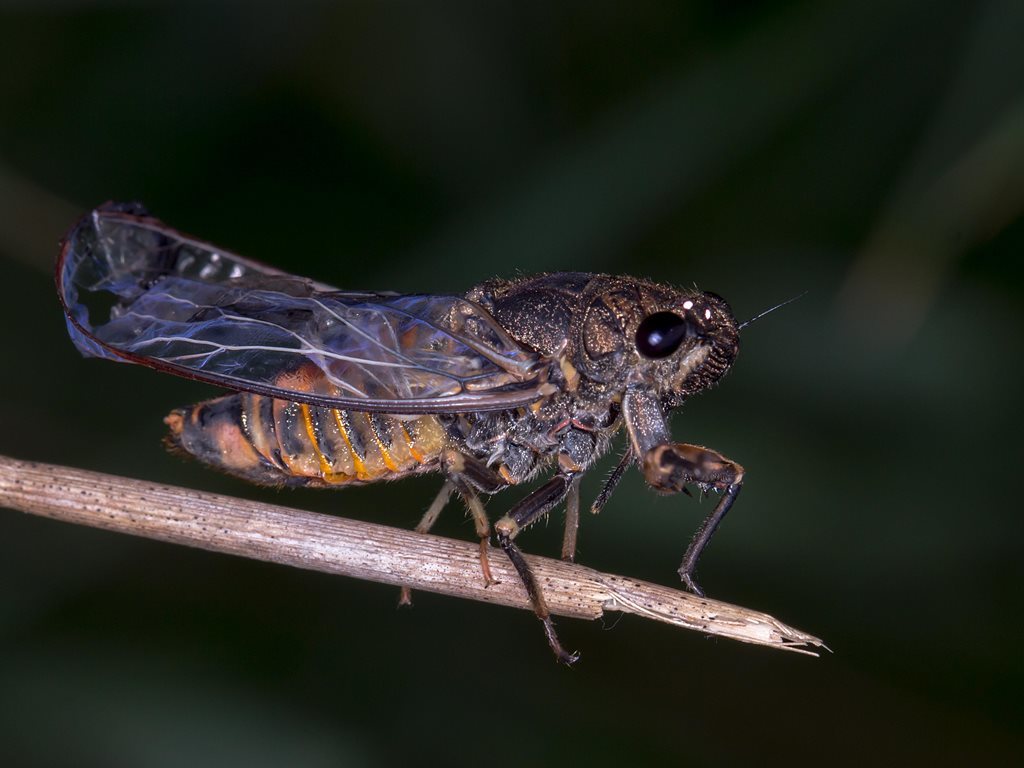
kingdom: Animalia
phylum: Arthropoda
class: Insecta
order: Hemiptera
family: Cicadidae
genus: Yoyetta
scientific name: Yoyetta robertsonae
